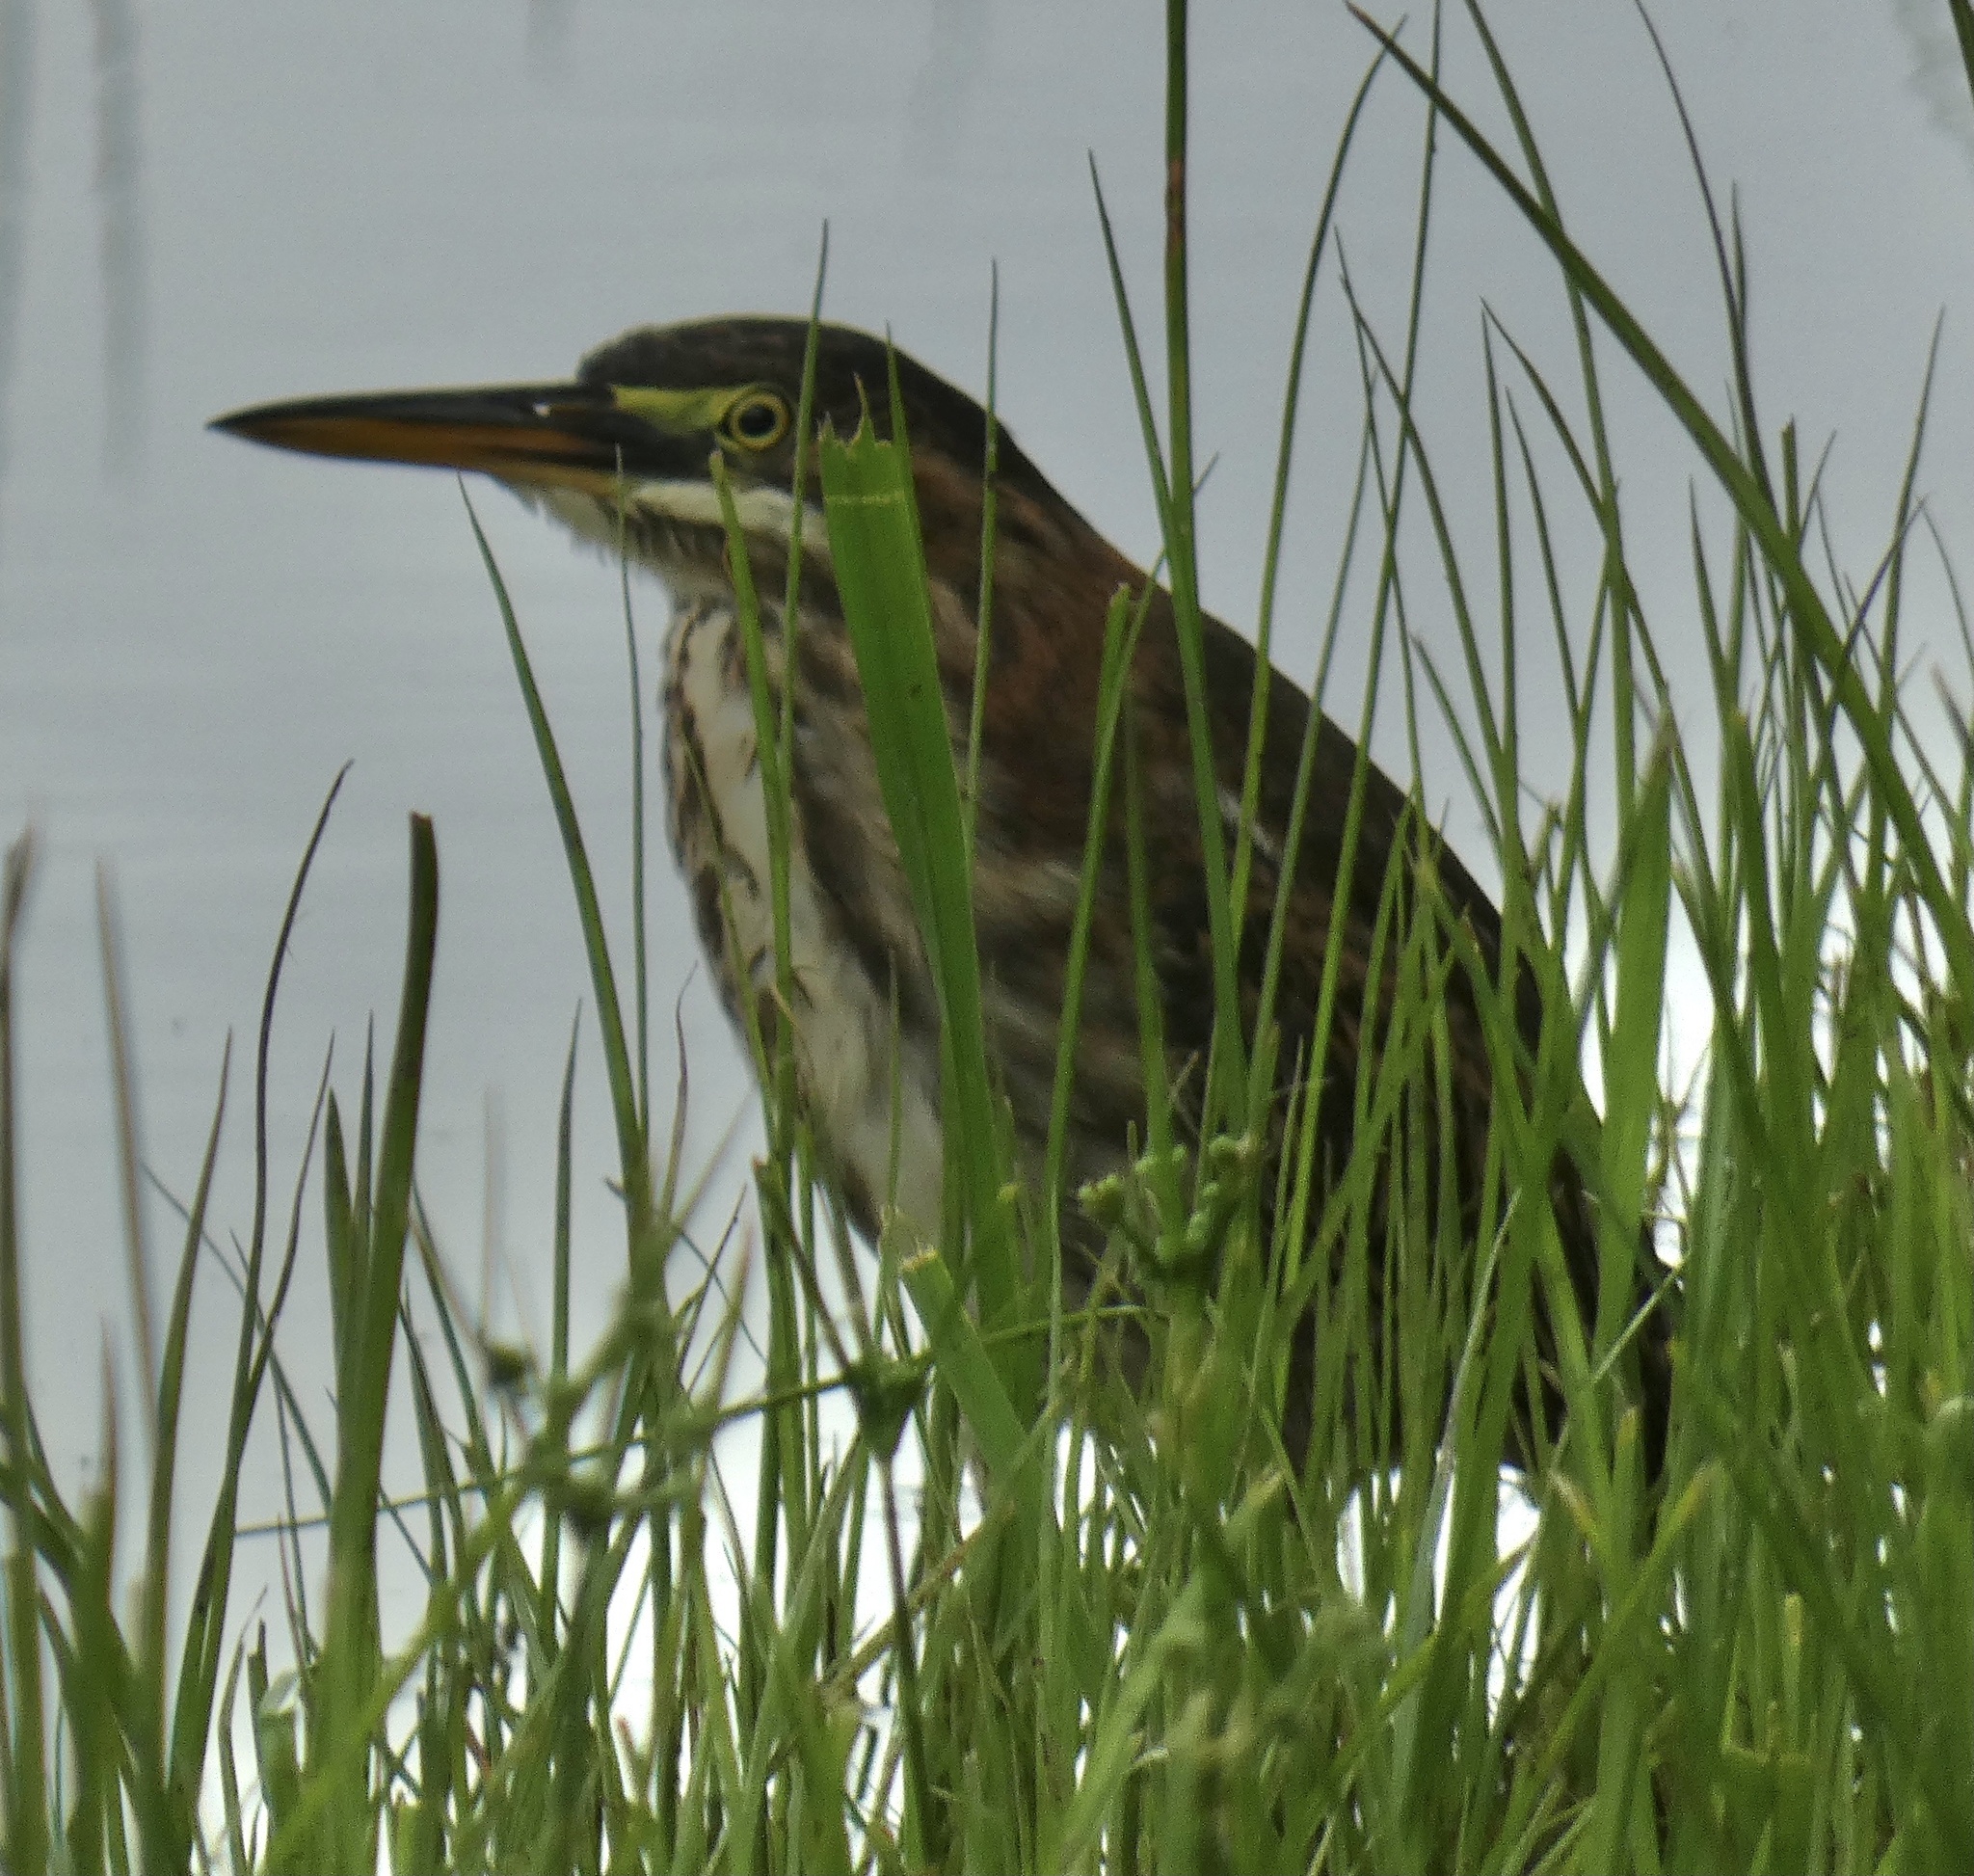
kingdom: Animalia
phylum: Chordata
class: Aves
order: Pelecaniformes
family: Ardeidae
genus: Butorides
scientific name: Butorides virescens
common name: Green heron
